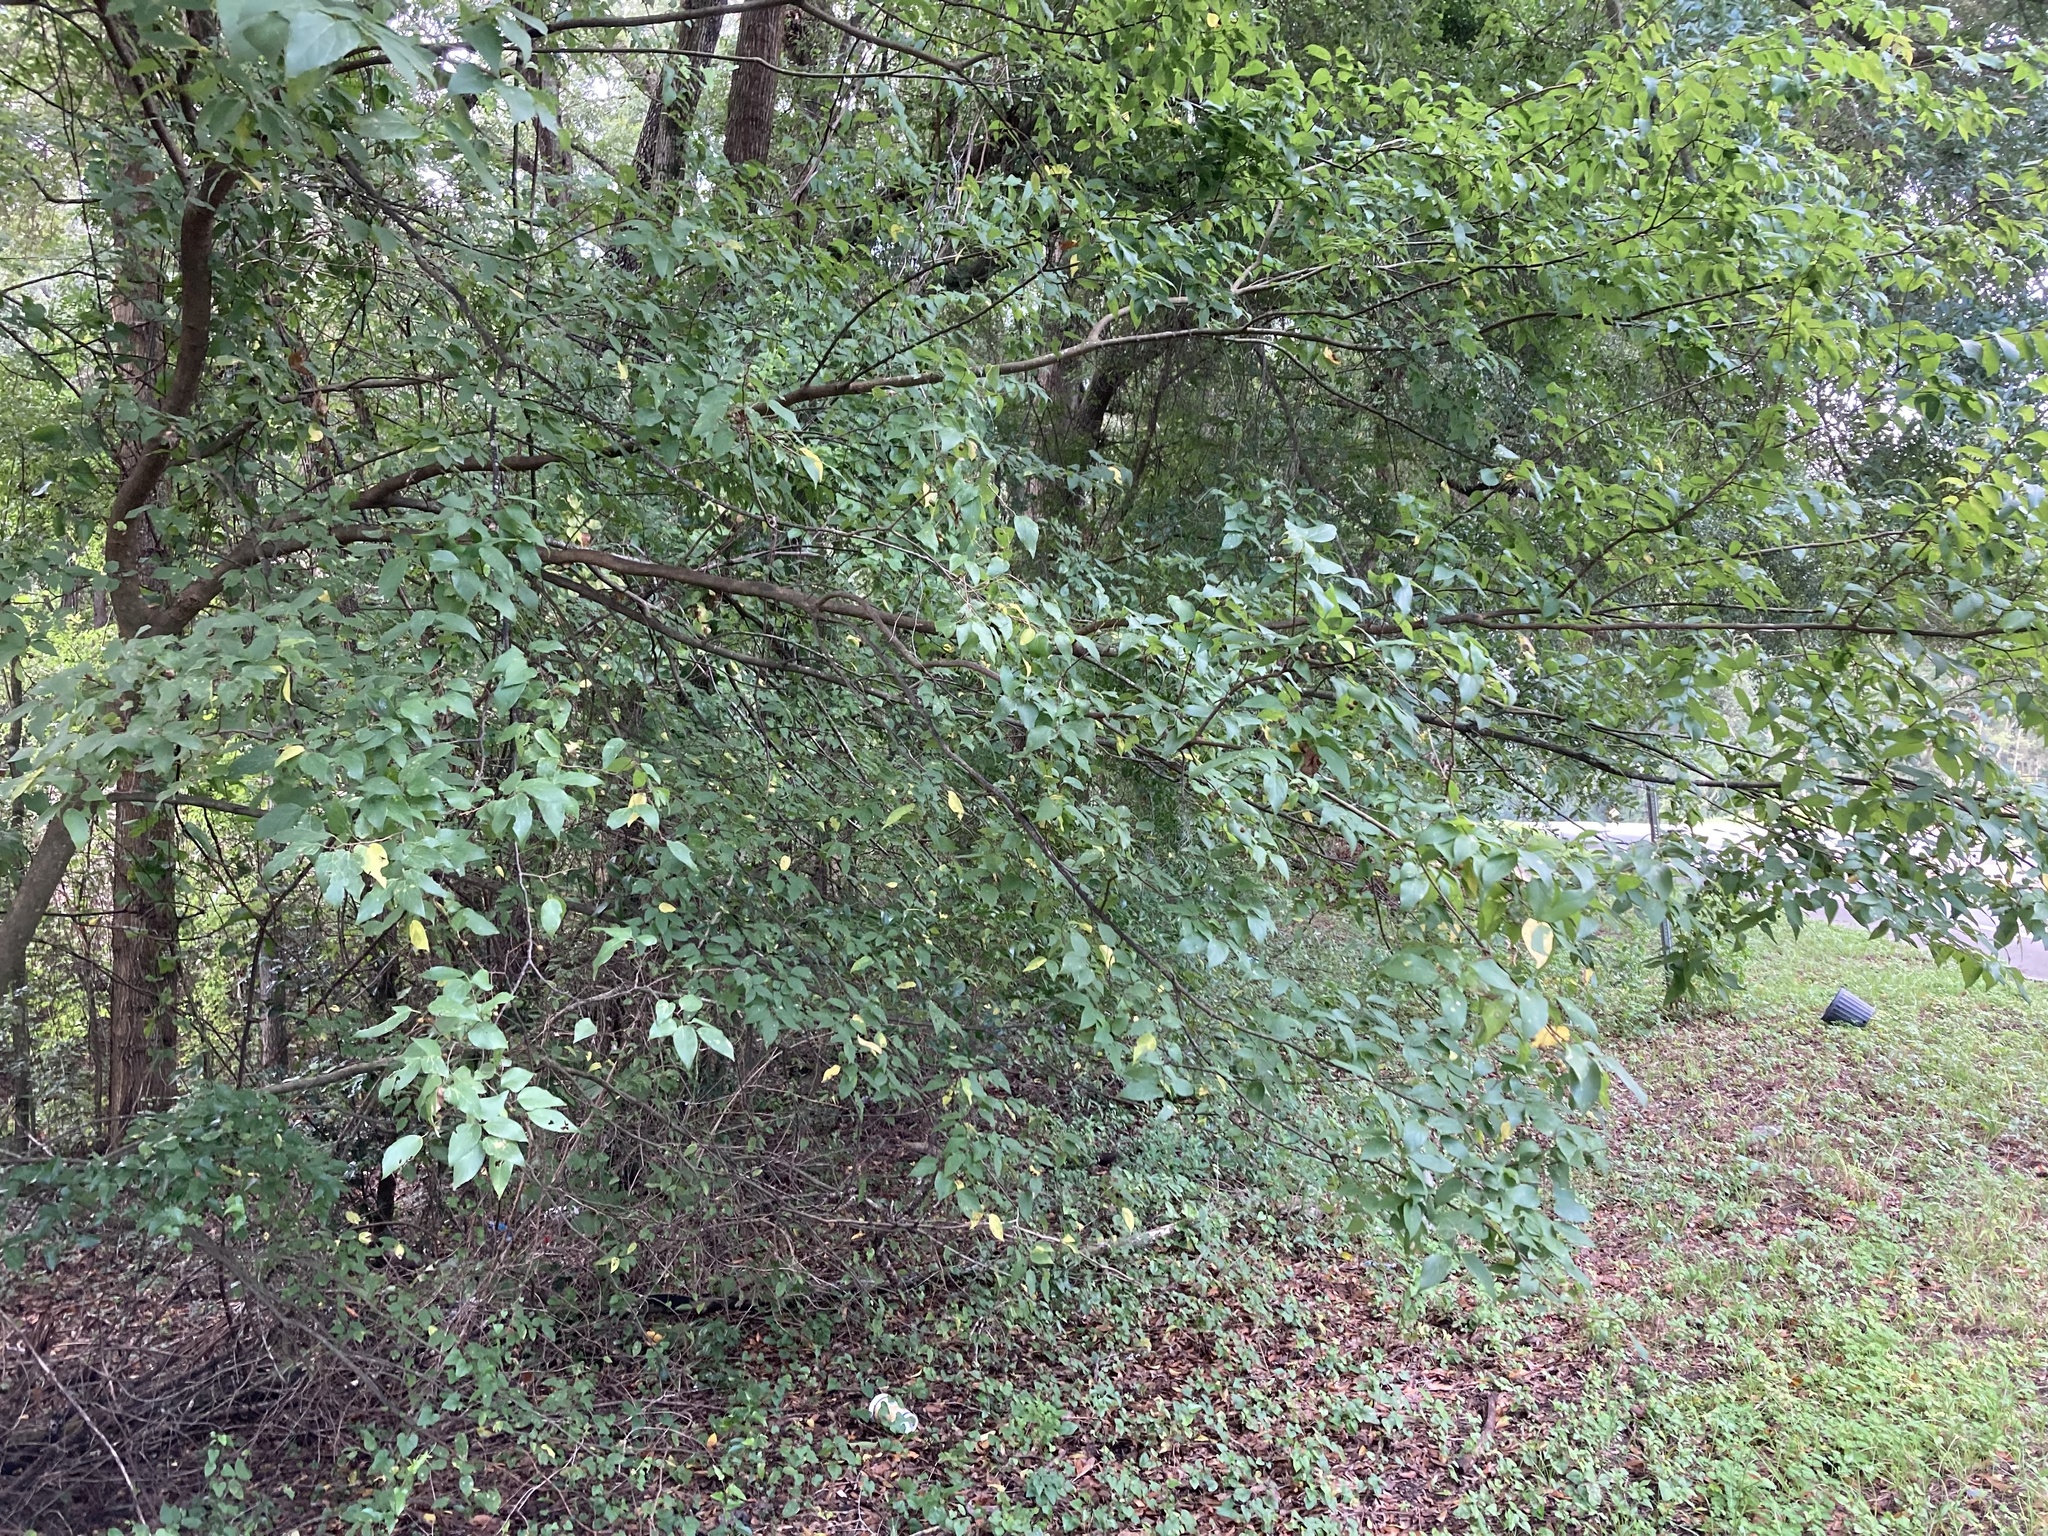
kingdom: Plantae
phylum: Tracheophyta
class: Magnoliopsida
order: Rosales
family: Cannabaceae
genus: Celtis
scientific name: Celtis laevigata
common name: Sugarberry
